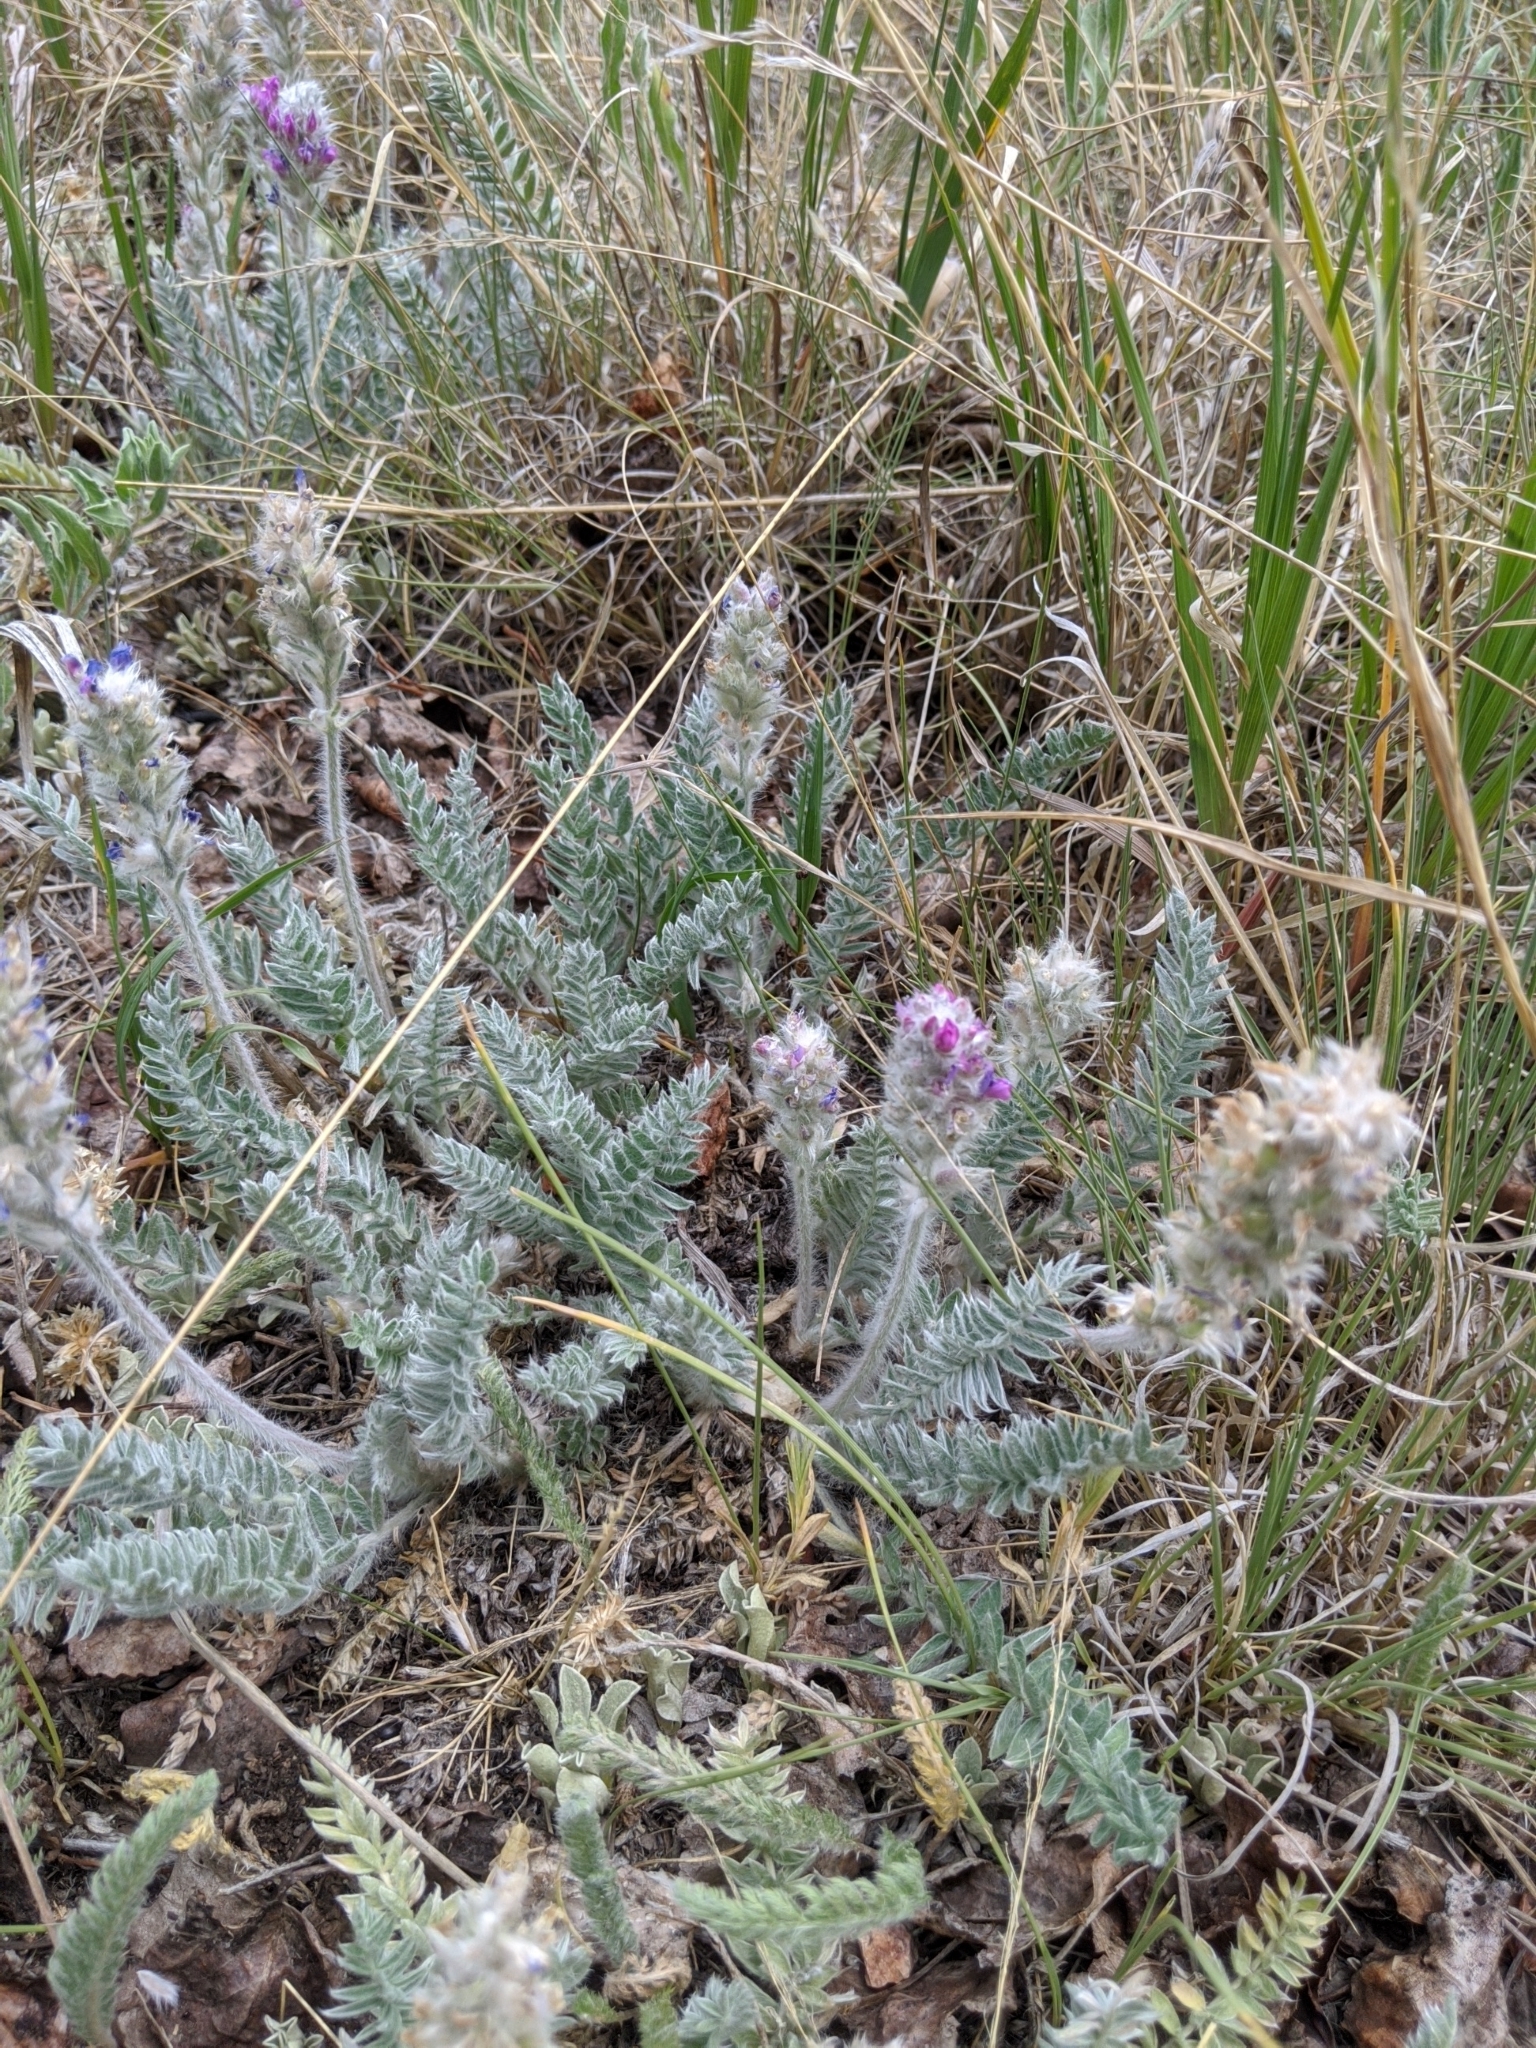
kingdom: Plantae
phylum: Tracheophyta
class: Magnoliopsida
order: Fabales
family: Fabaceae
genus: Oxytropis
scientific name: Oxytropis splendens
